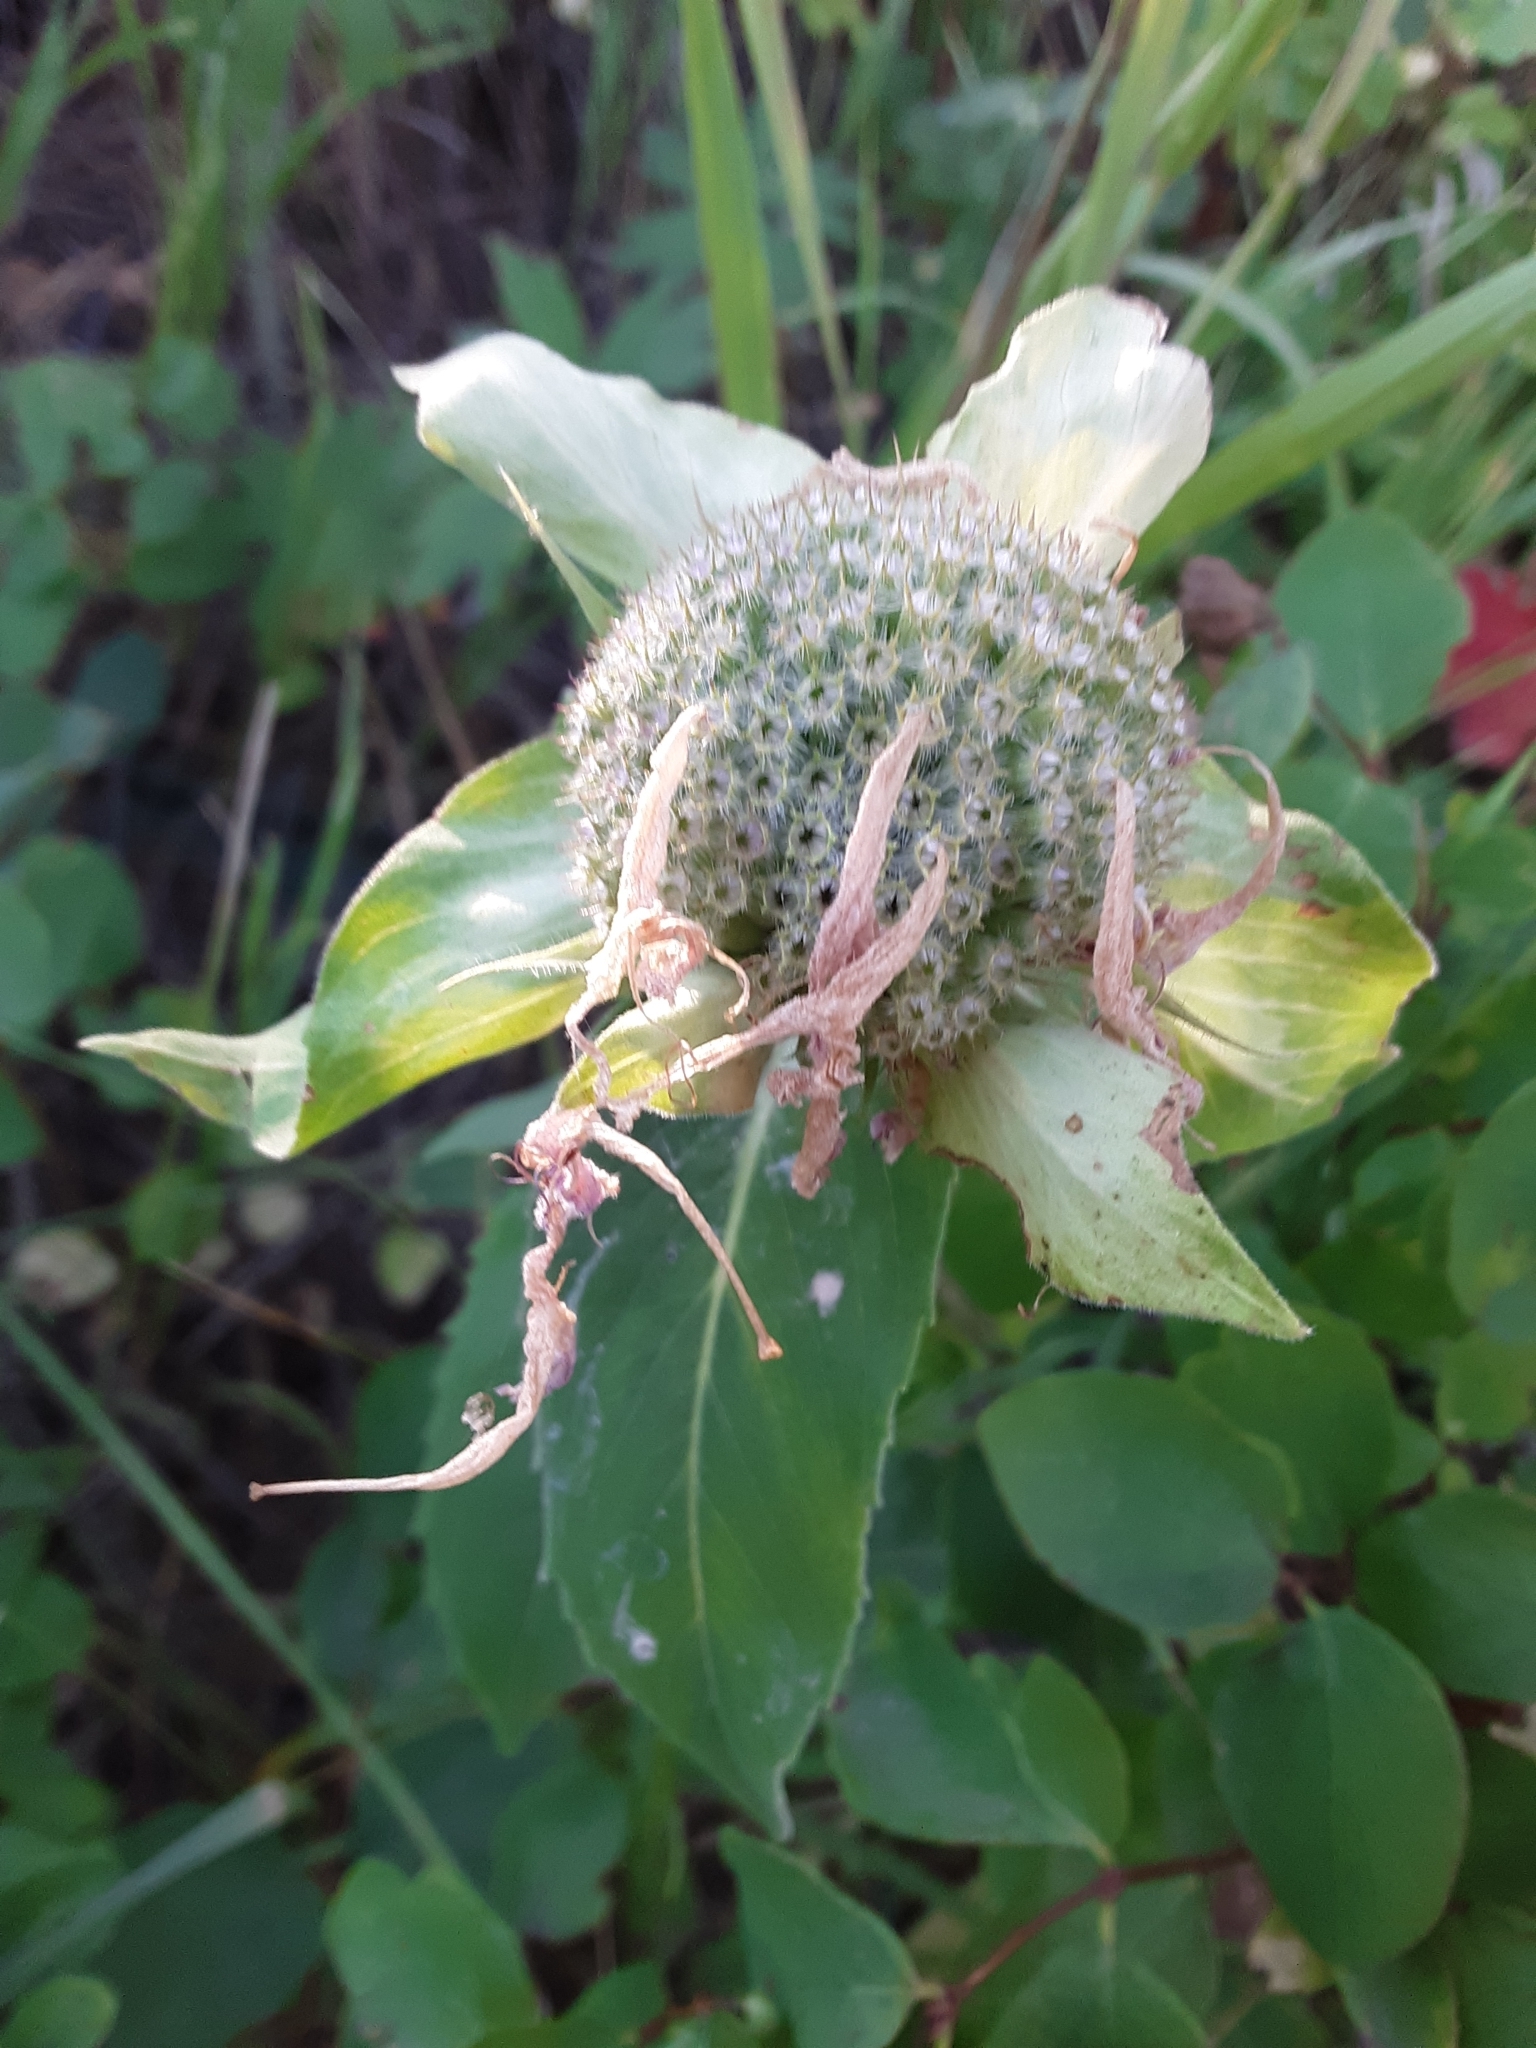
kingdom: Plantae
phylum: Tracheophyta
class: Magnoliopsida
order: Lamiales
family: Lamiaceae
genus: Monarda
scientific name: Monarda fistulosa
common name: Purple beebalm
